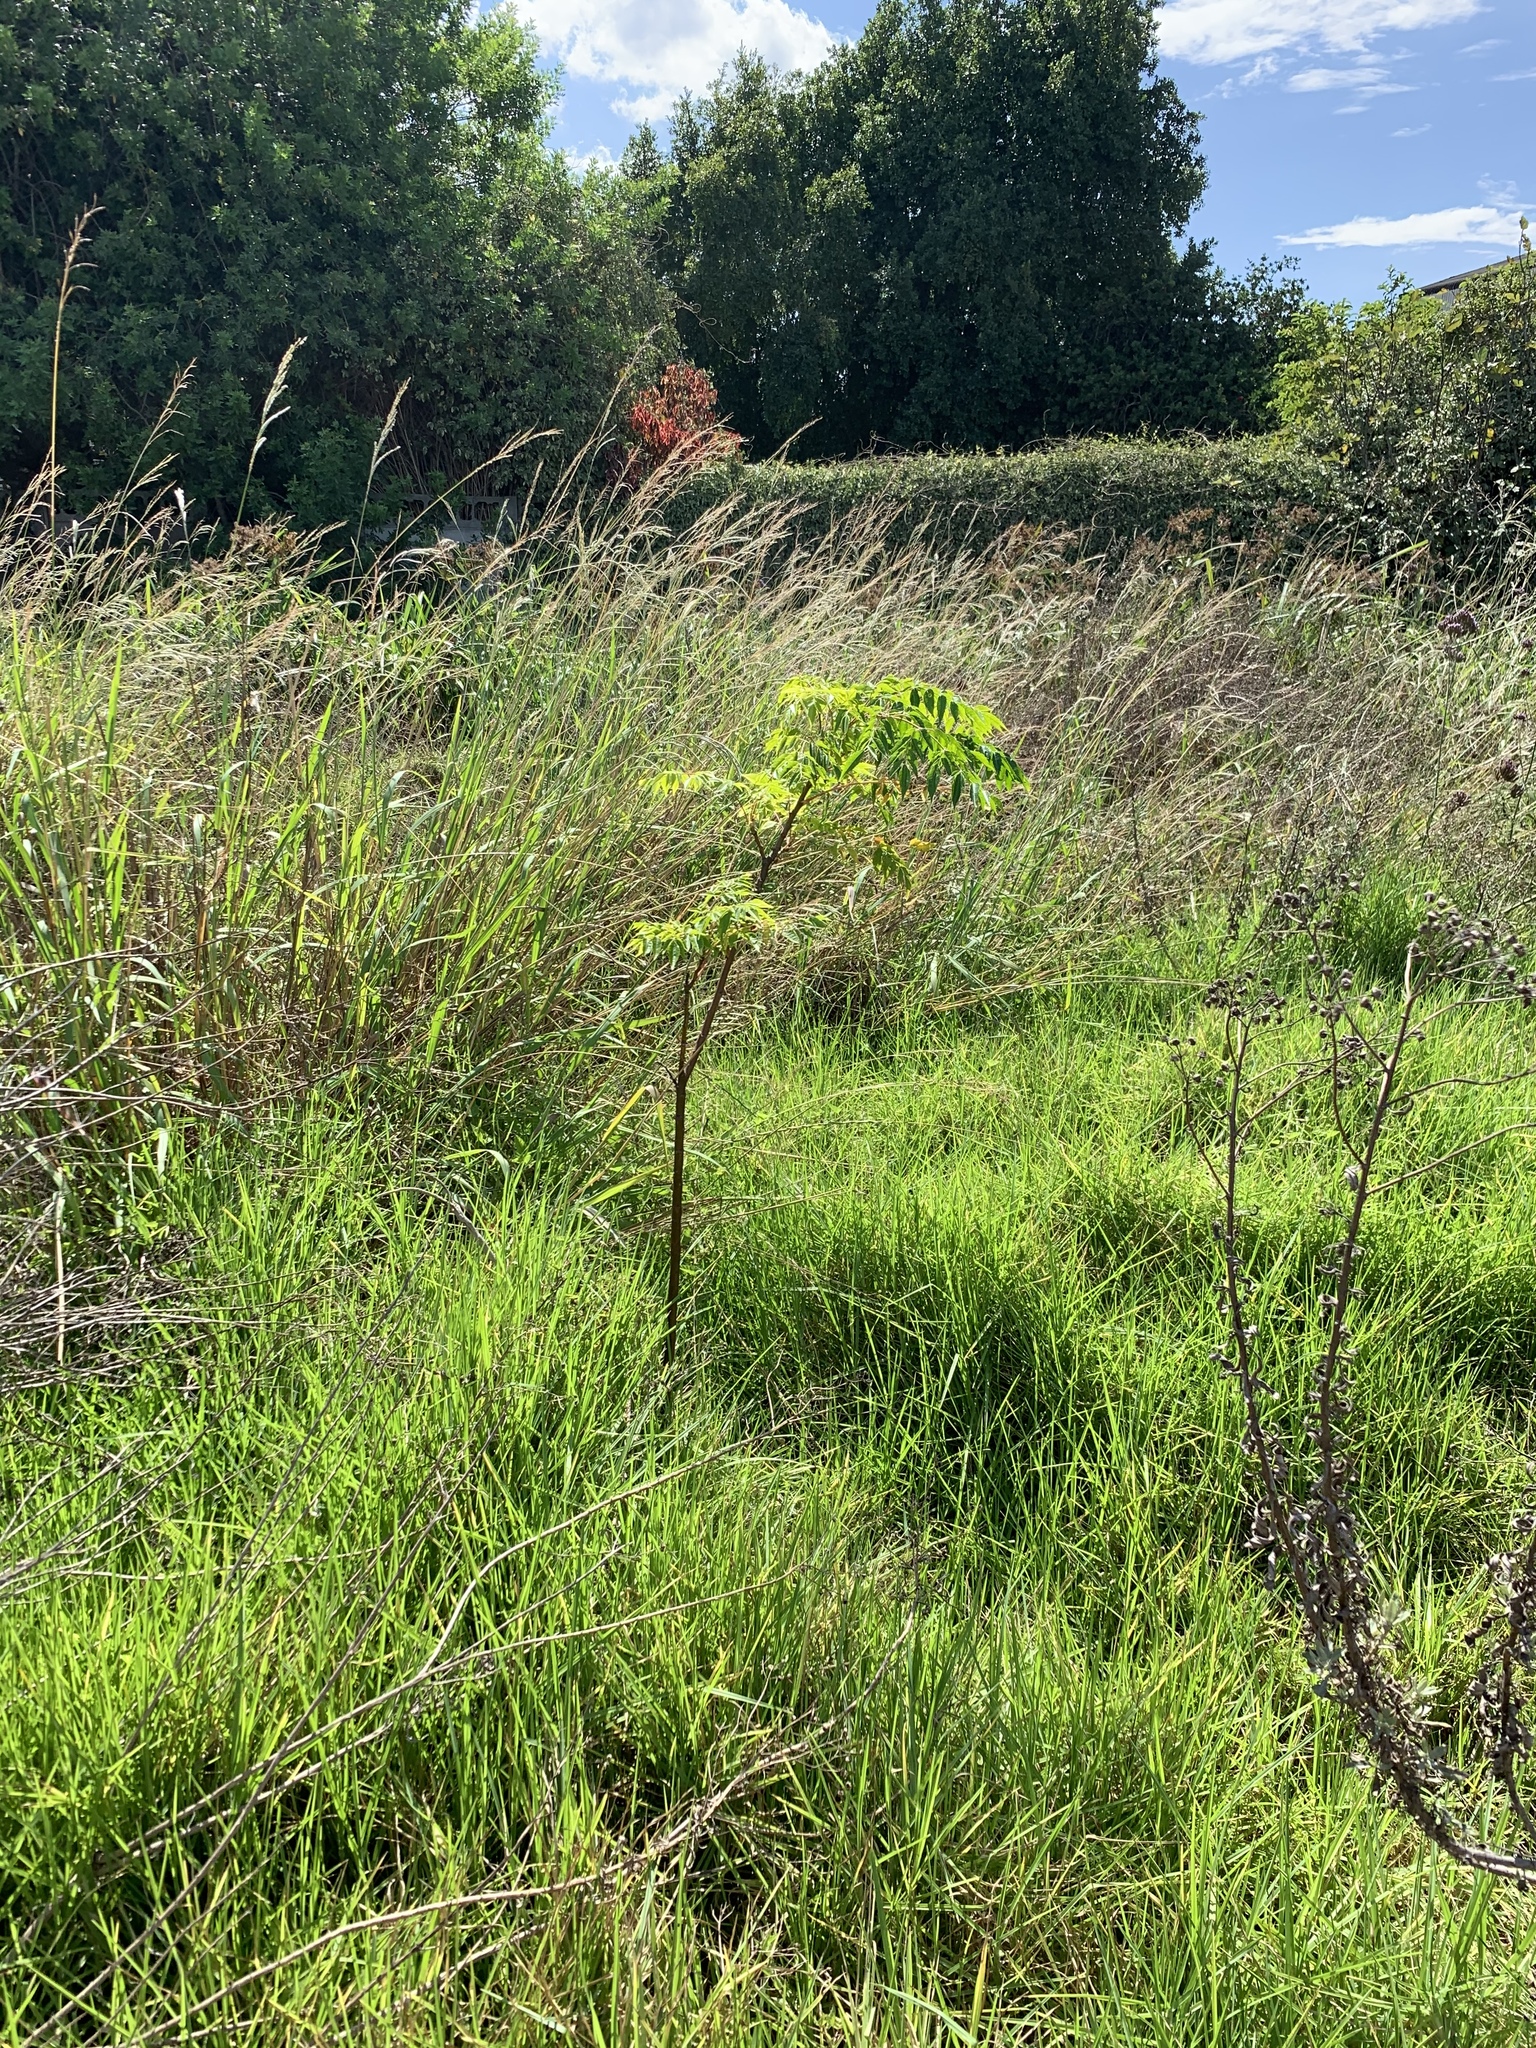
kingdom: Plantae
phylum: Tracheophyta
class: Magnoliopsida
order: Sapindales
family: Meliaceae
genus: Melia
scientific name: Melia azedarach
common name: Chinaberrytree
